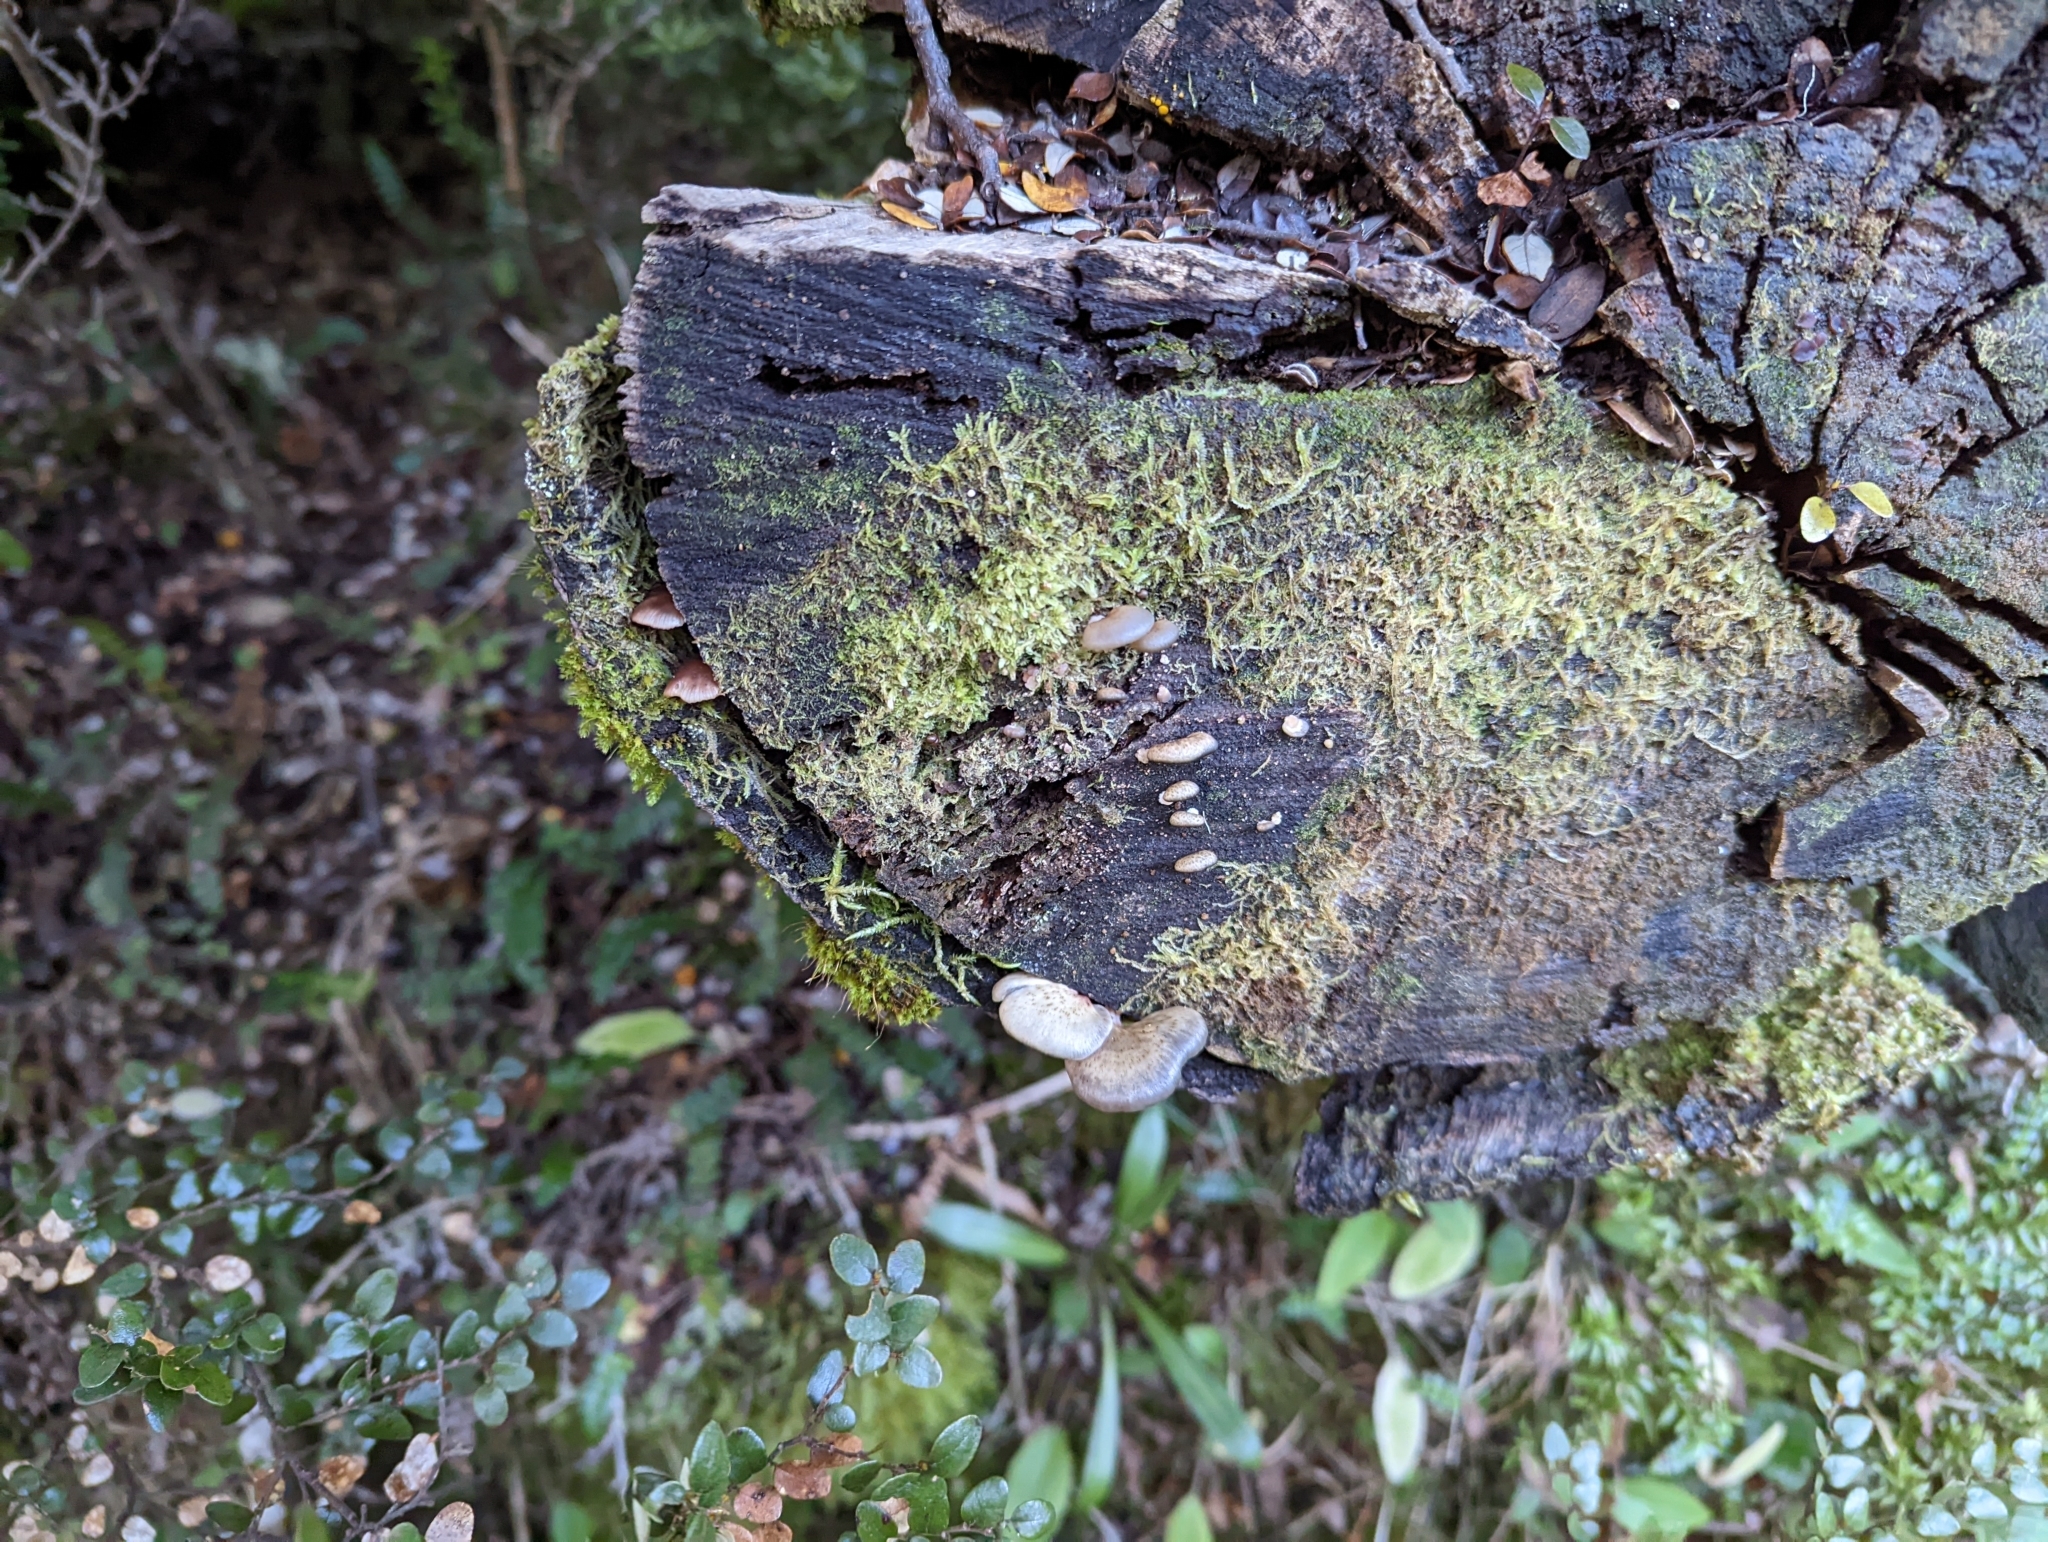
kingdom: Fungi
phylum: Basidiomycota
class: Agaricomycetes
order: Agaricales
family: Mycenaceae
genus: Panellus
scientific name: Panellus longinquus
